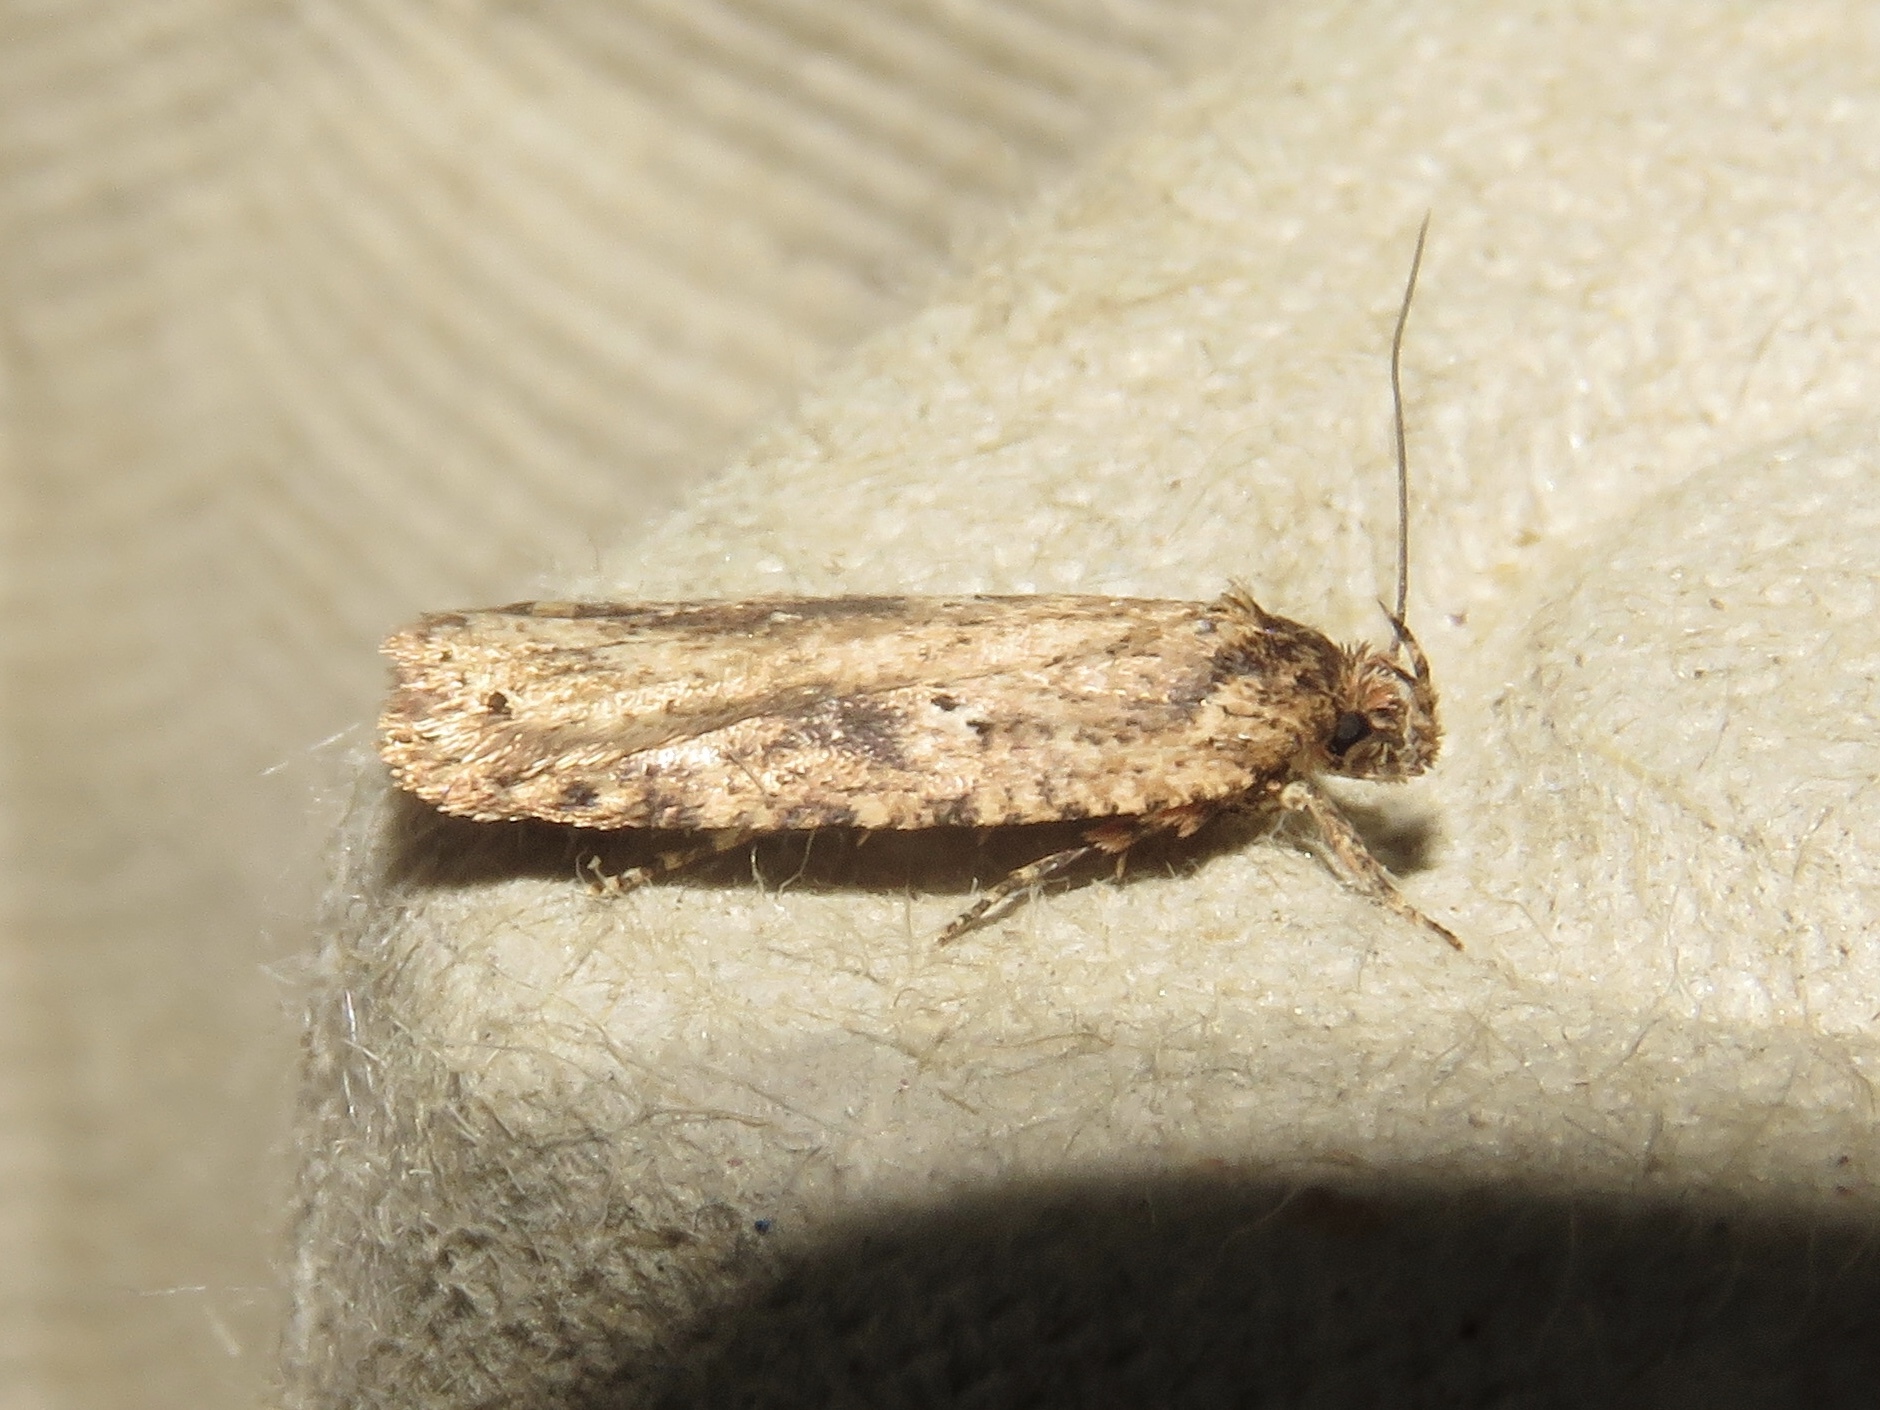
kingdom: Animalia
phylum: Arthropoda
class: Insecta
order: Lepidoptera
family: Depressariidae
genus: Agonopterix
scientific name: Agonopterix pulvipennella
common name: Goldenrod leafffolder
